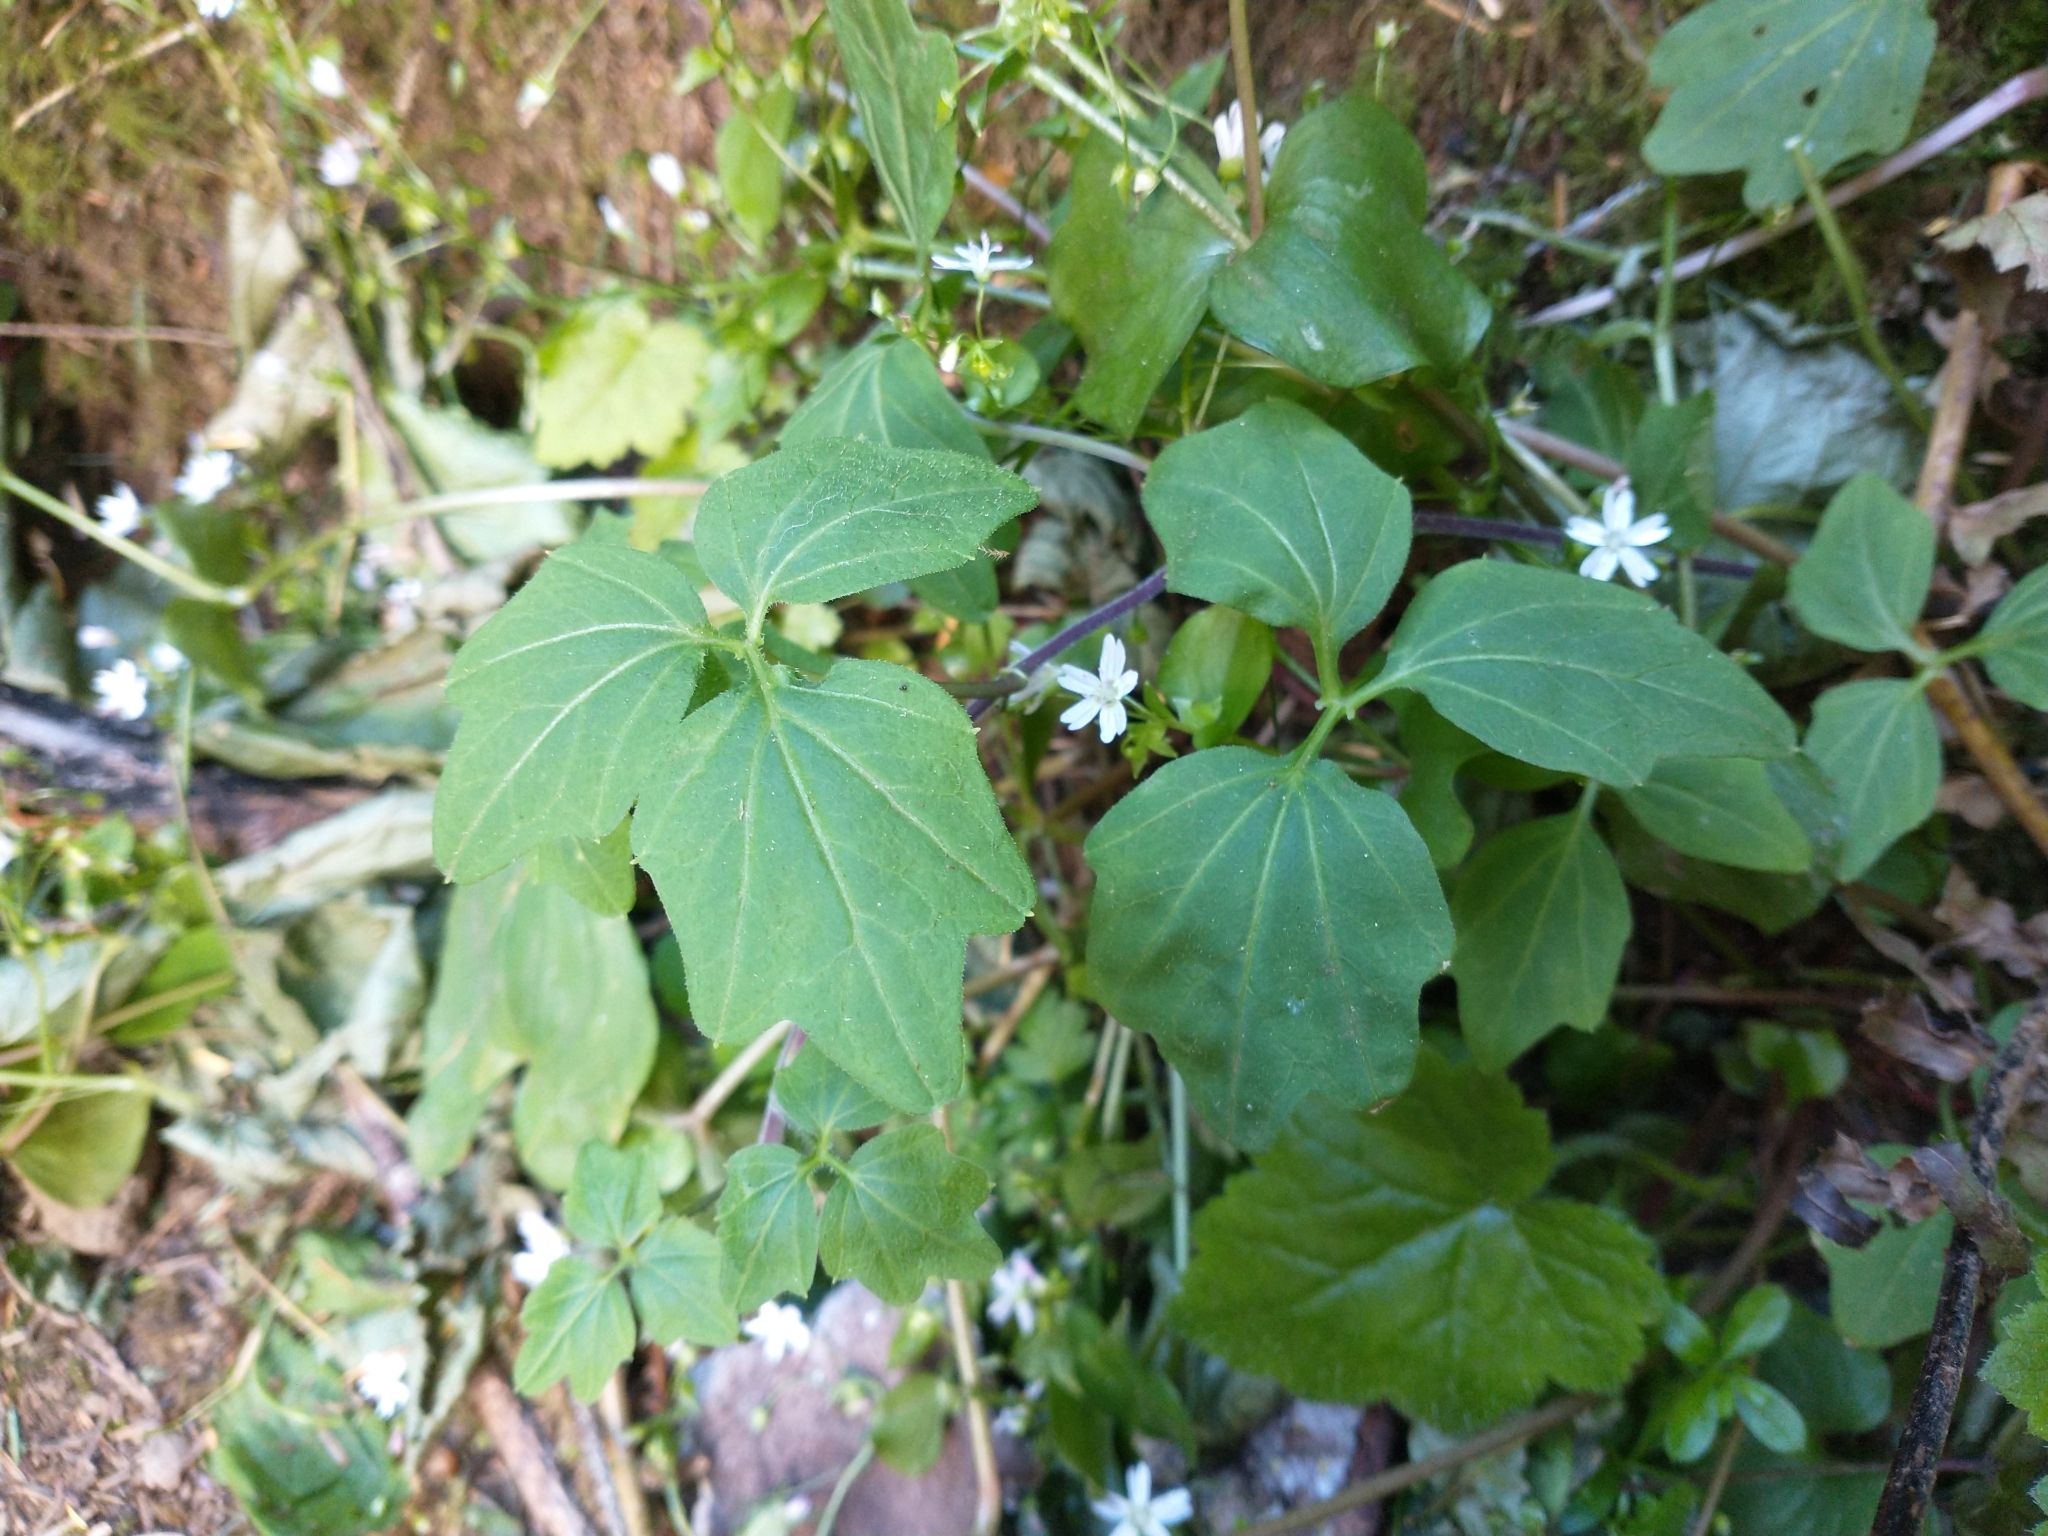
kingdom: Plantae
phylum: Tracheophyta
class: Magnoliopsida
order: Brassicales
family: Brassicaceae
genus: Cardamine
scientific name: Cardamine angulata
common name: Angled bittercress
